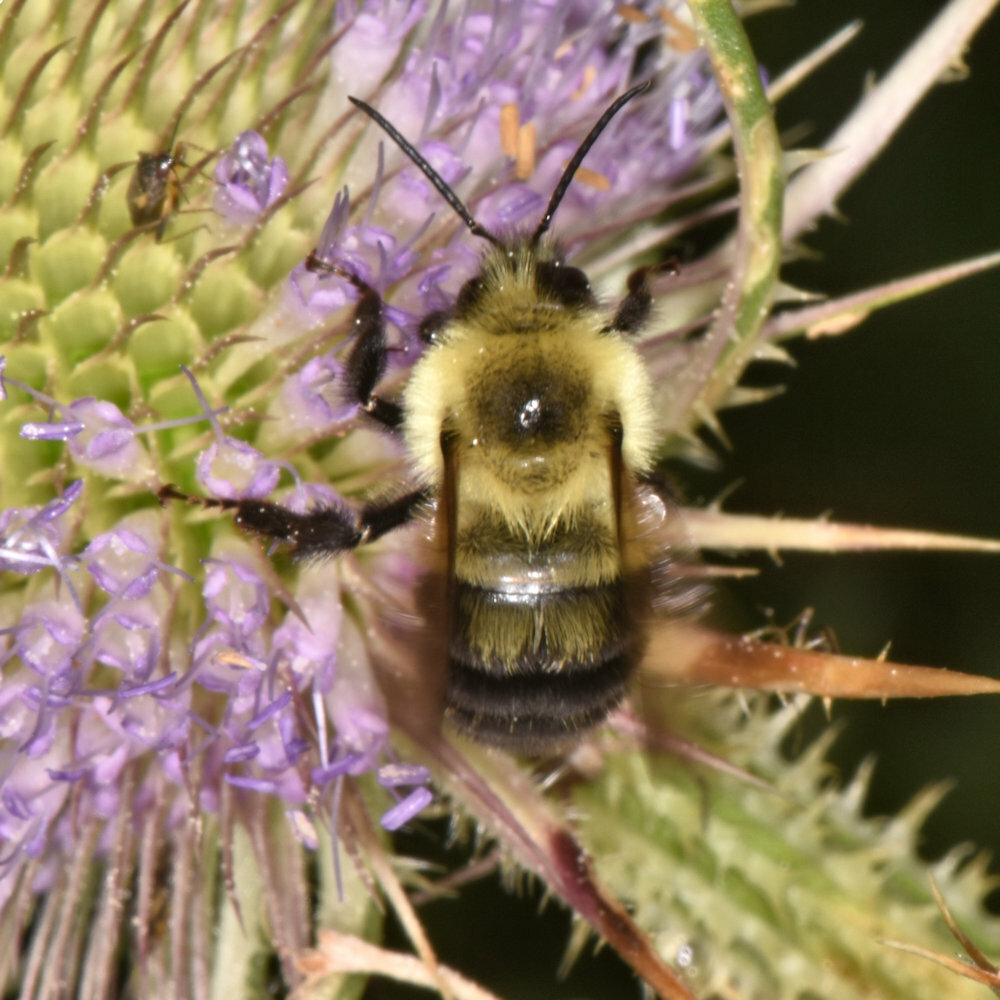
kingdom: Animalia
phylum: Arthropoda
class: Insecta
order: Hymenoptera
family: Apidae
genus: Bombus
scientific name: Bombus bimaculatus
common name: Two-spotted bumble bee
